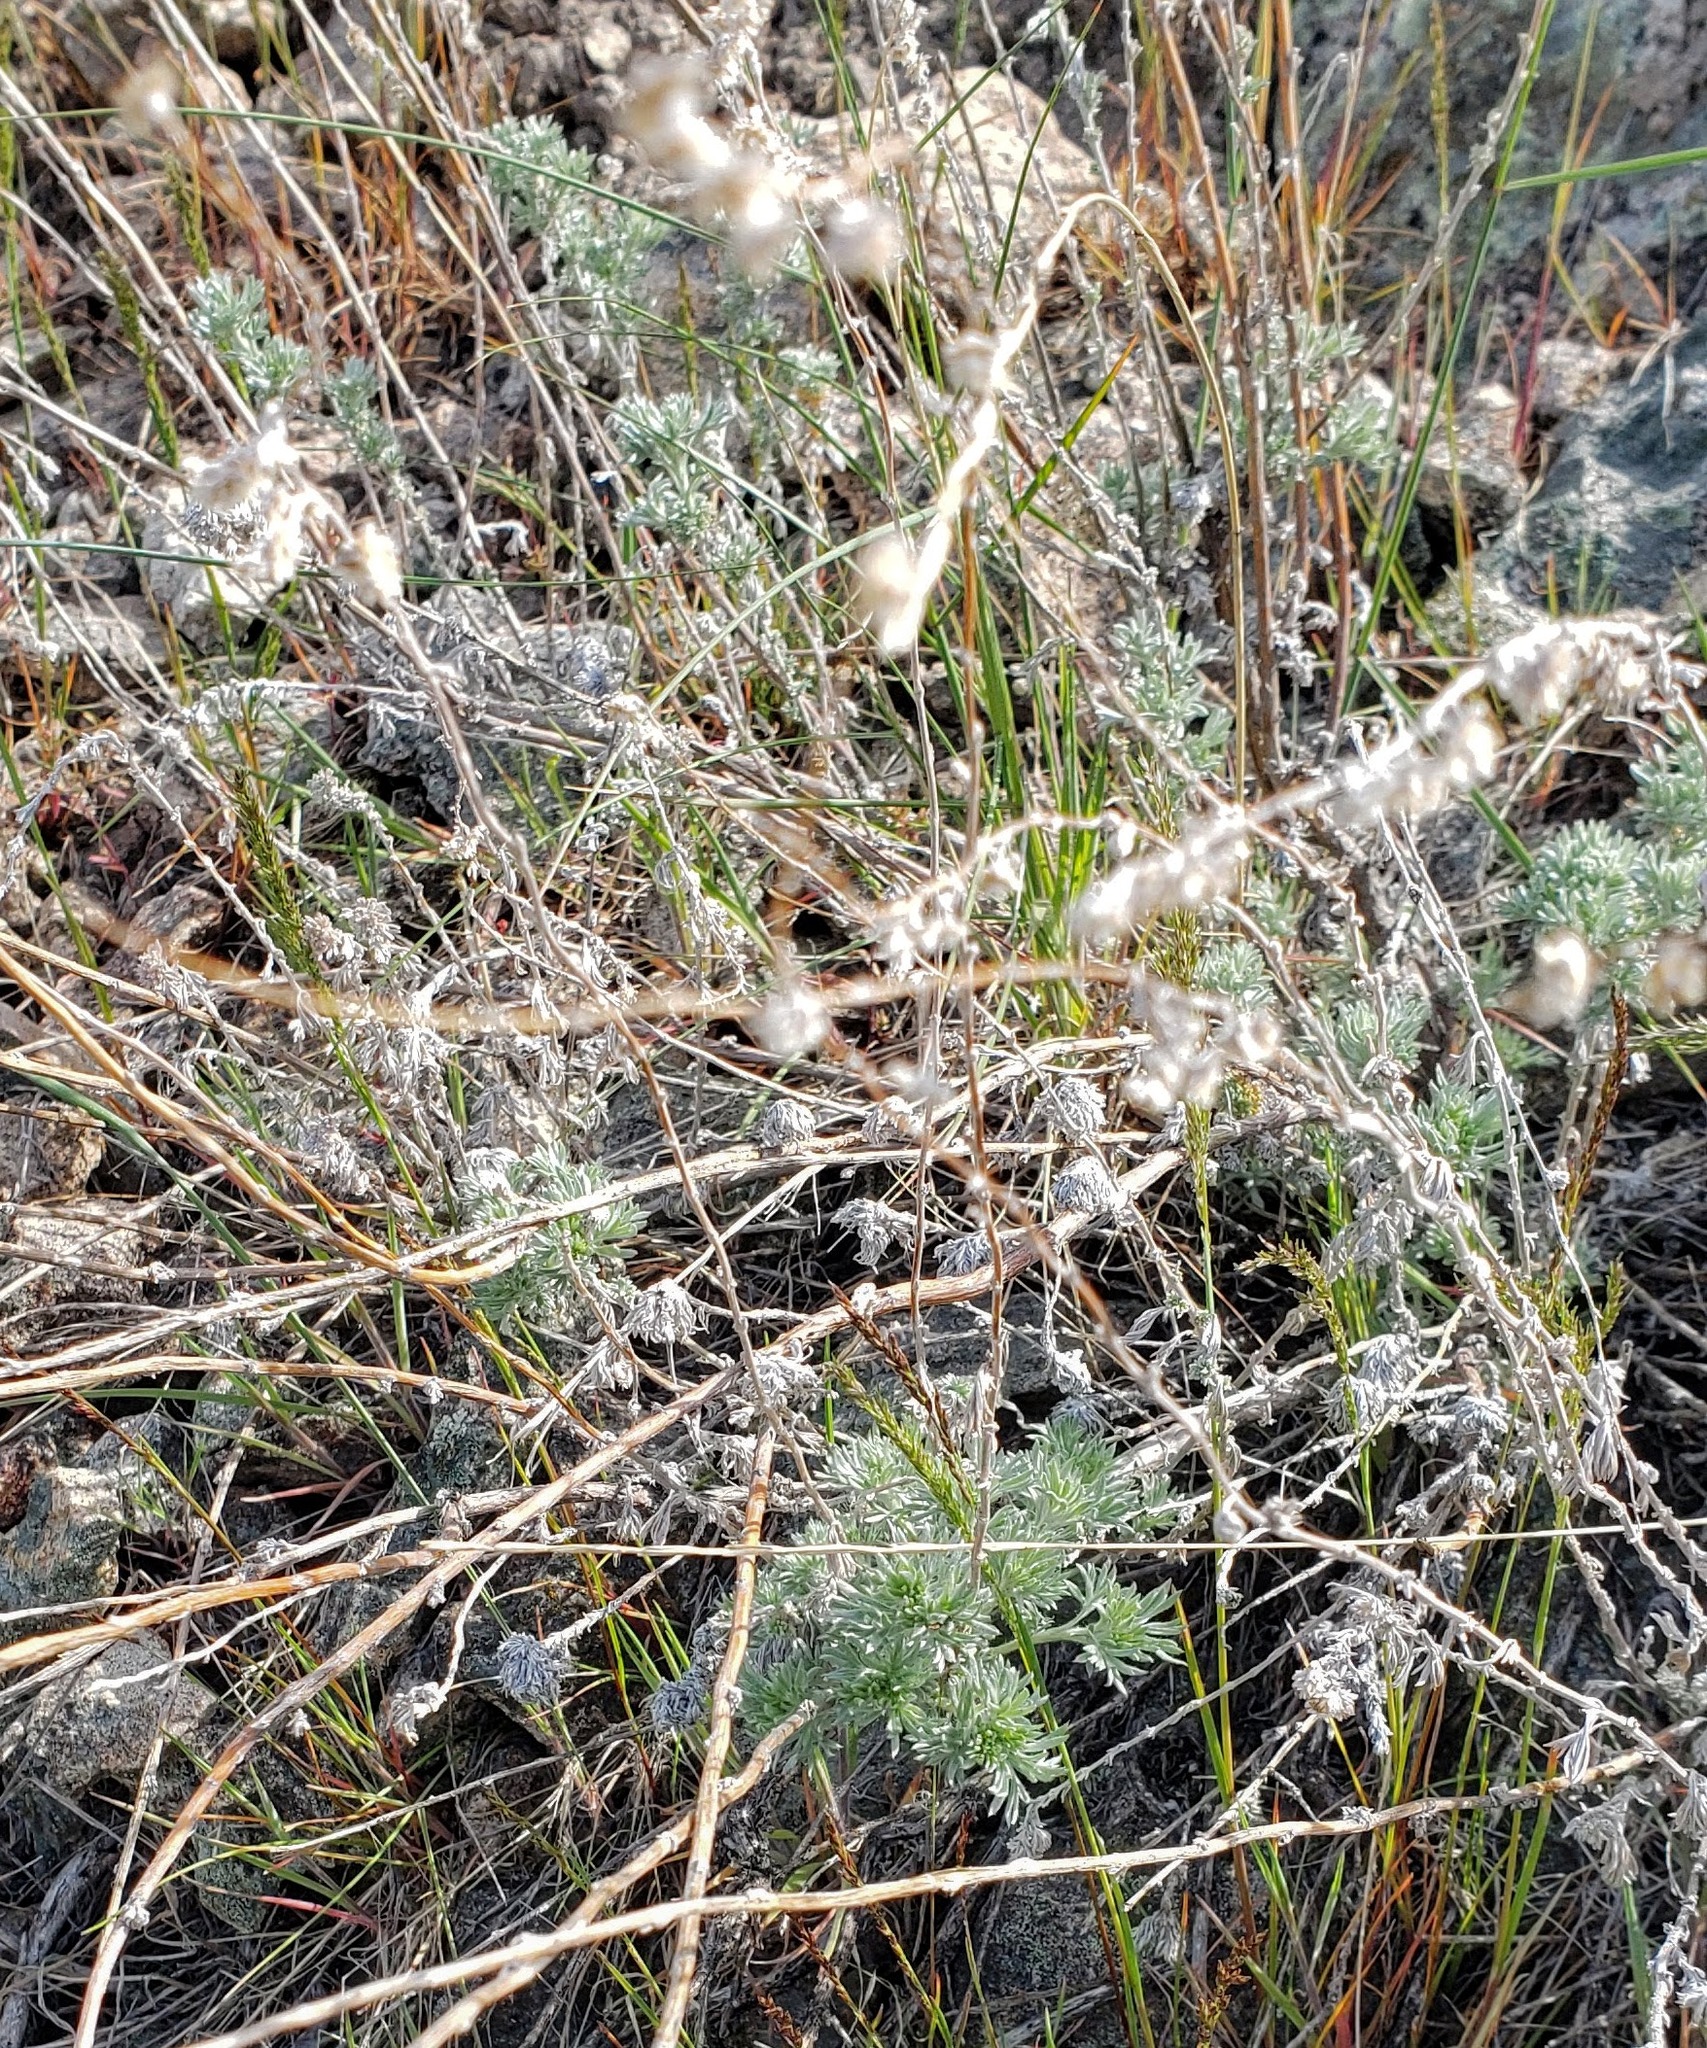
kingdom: Plantae
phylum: Tracheophyta
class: Magnoliopsida
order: Asterales
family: Asteraceae
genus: Artemisia
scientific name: Artemisia frigida
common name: Prairie sagewort
